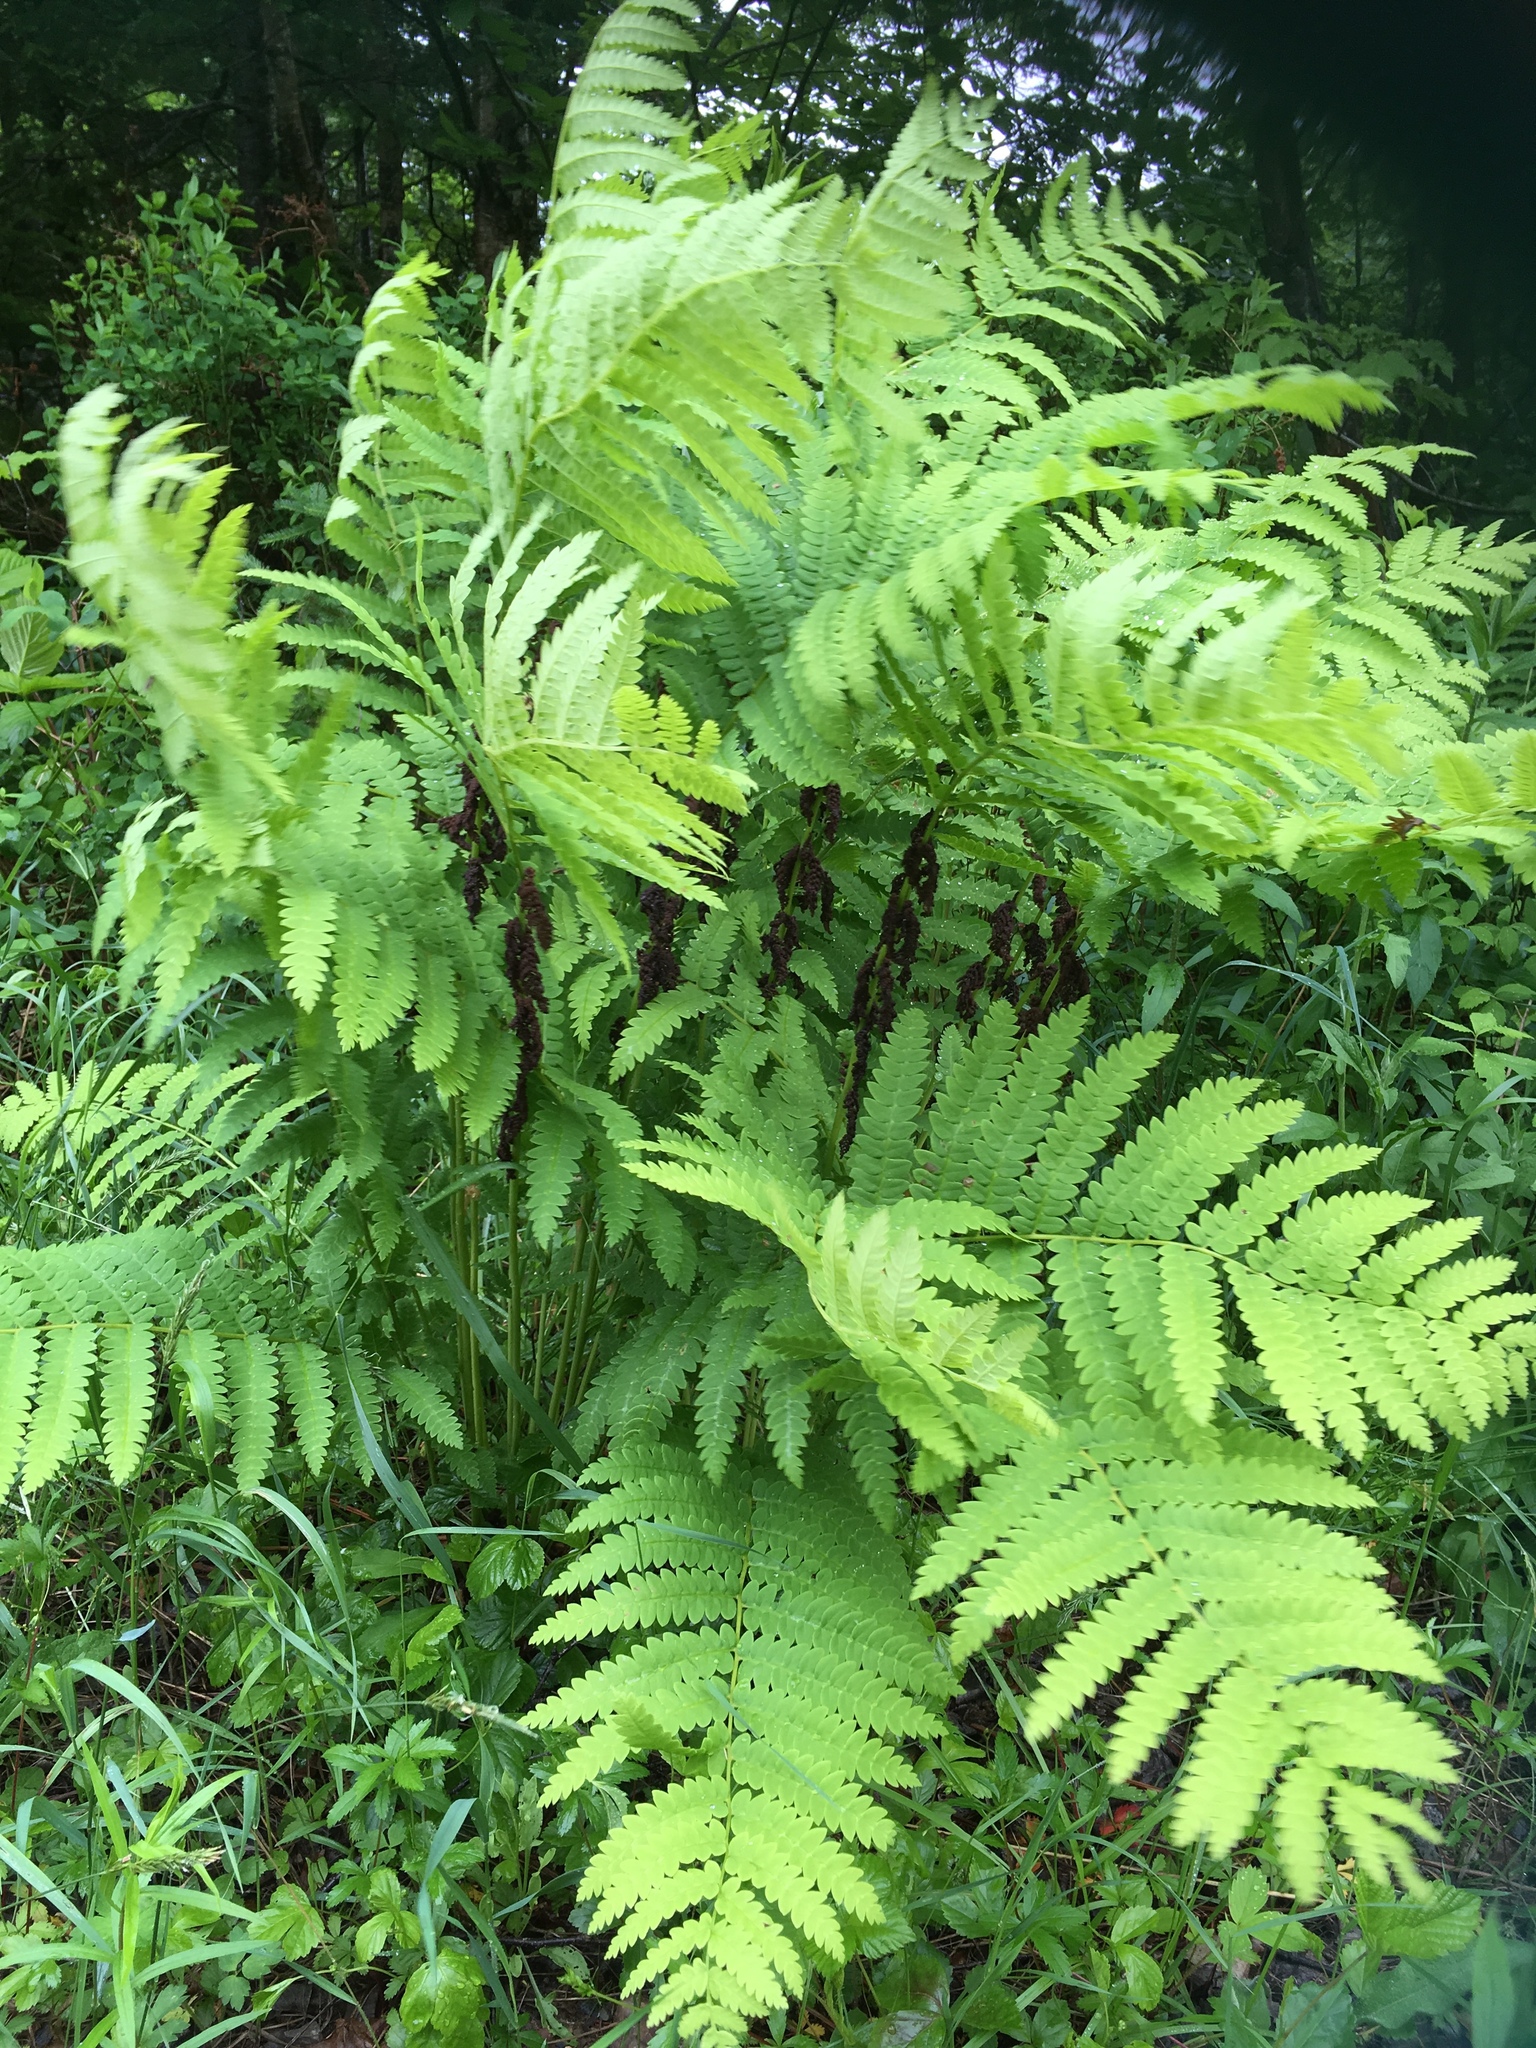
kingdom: Plantae
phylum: Tracheophyta
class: Polypodiopsida
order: Osmundales
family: Osmundaceae
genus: Claytosmunda
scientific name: Claytosmunda claytoniana
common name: Clayton's fern
